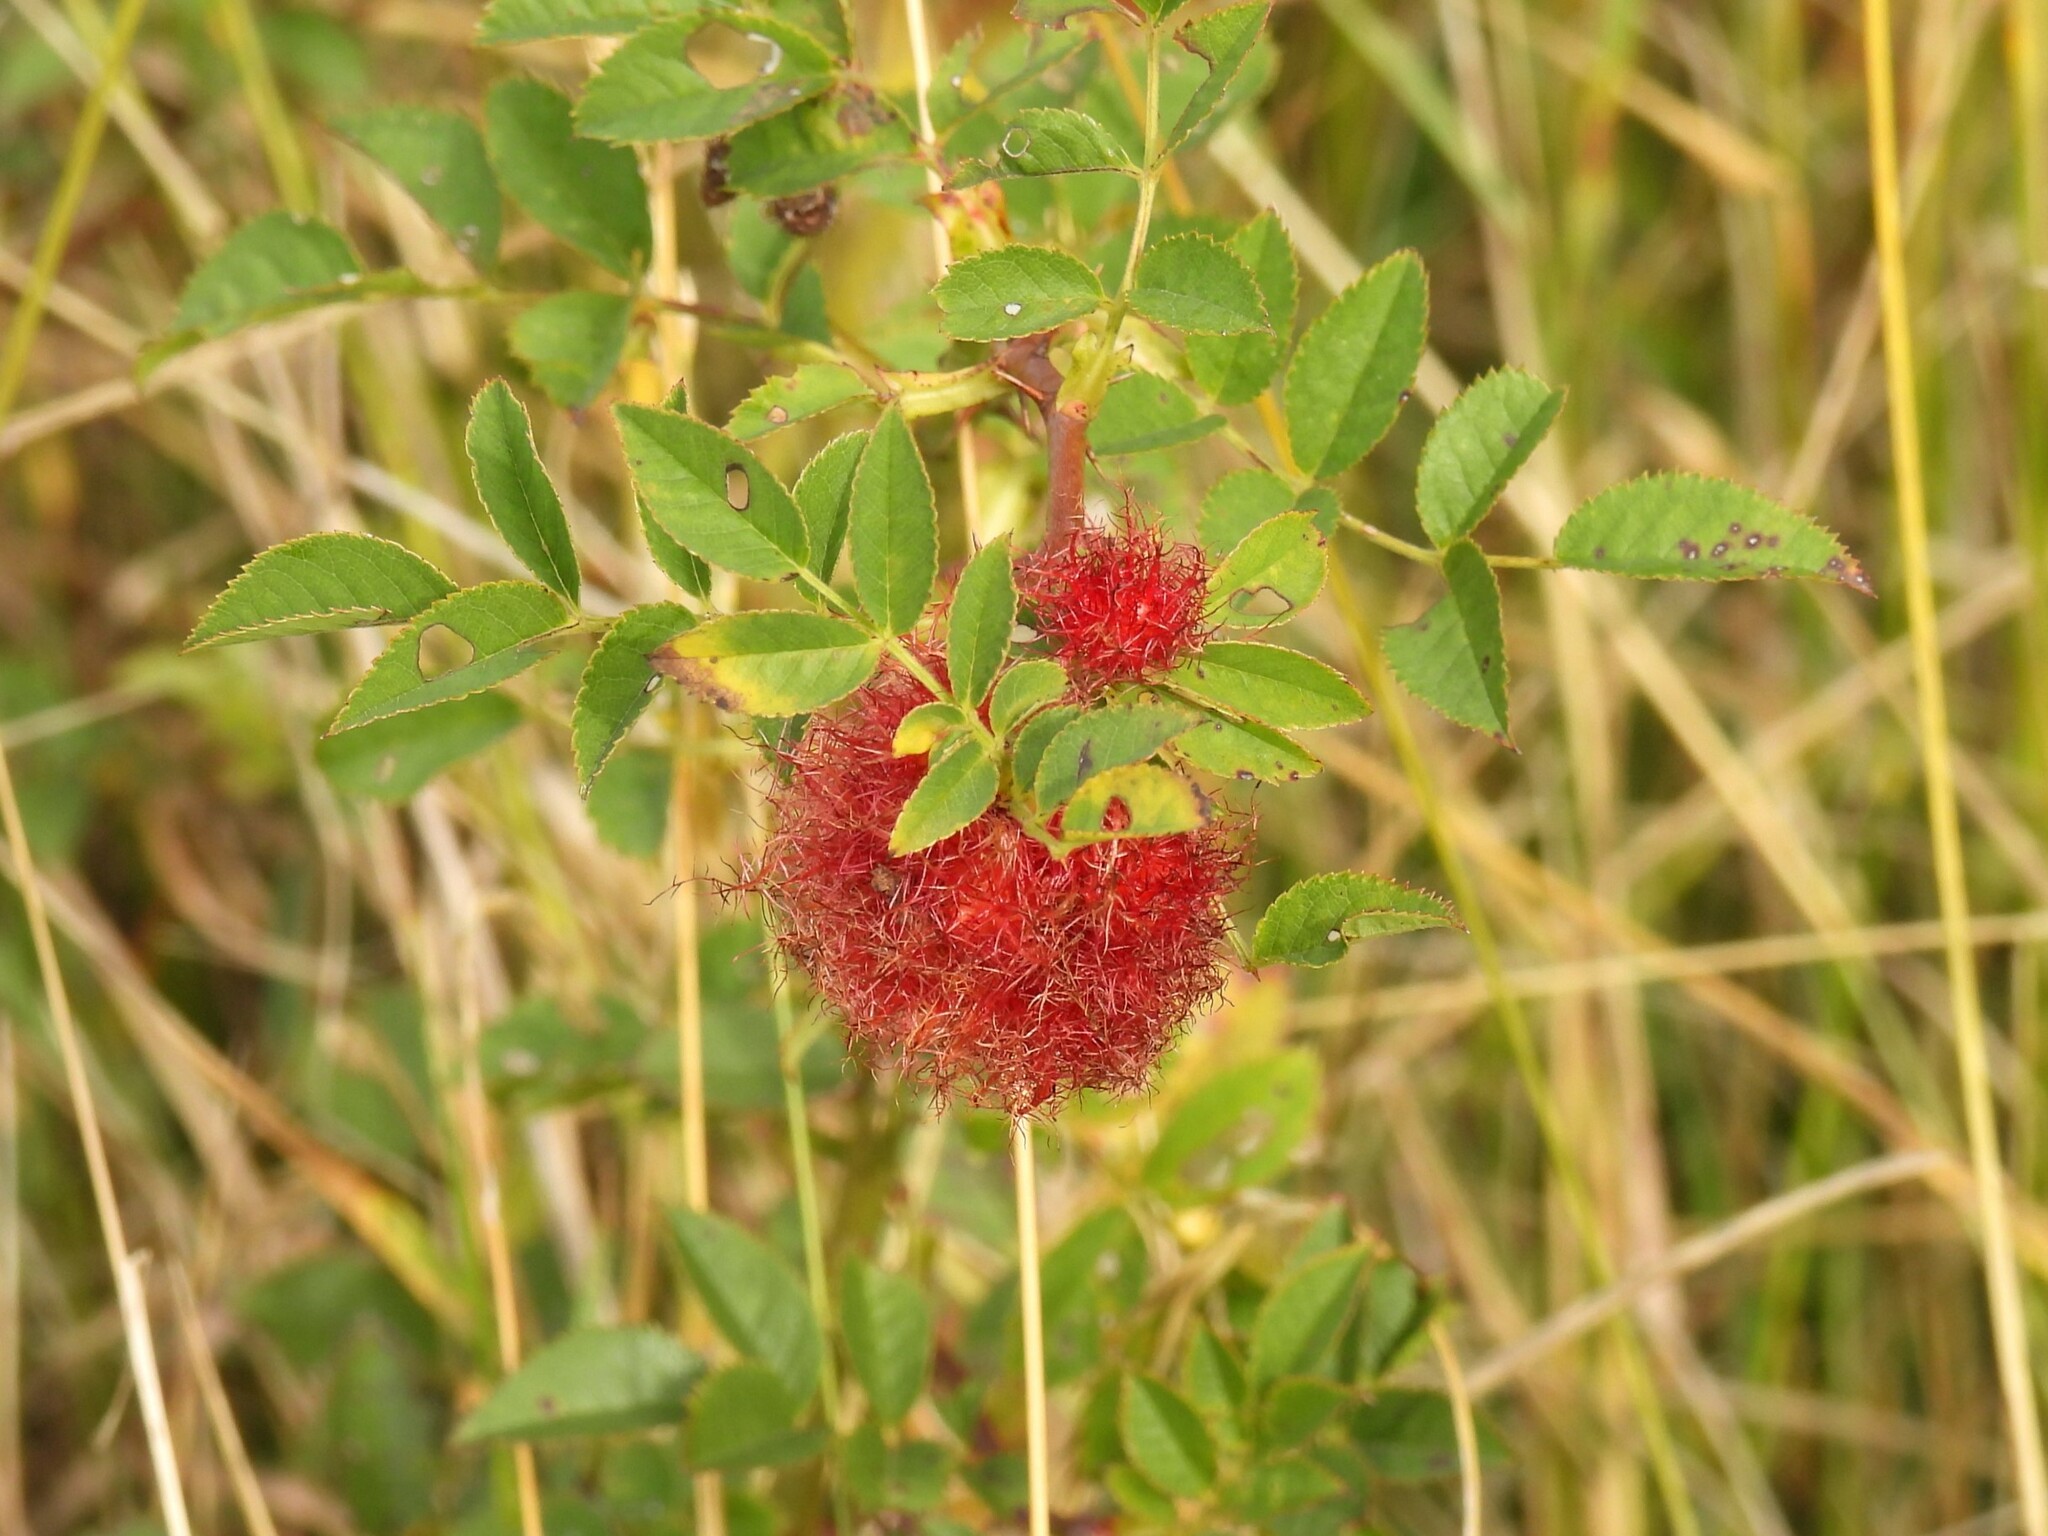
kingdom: Animalia
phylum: Arthropoda
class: Insecta
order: Hymenoptera
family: Cynipidae
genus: Diplolepis
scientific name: Diplolepis rosae
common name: Bedeguar gall
